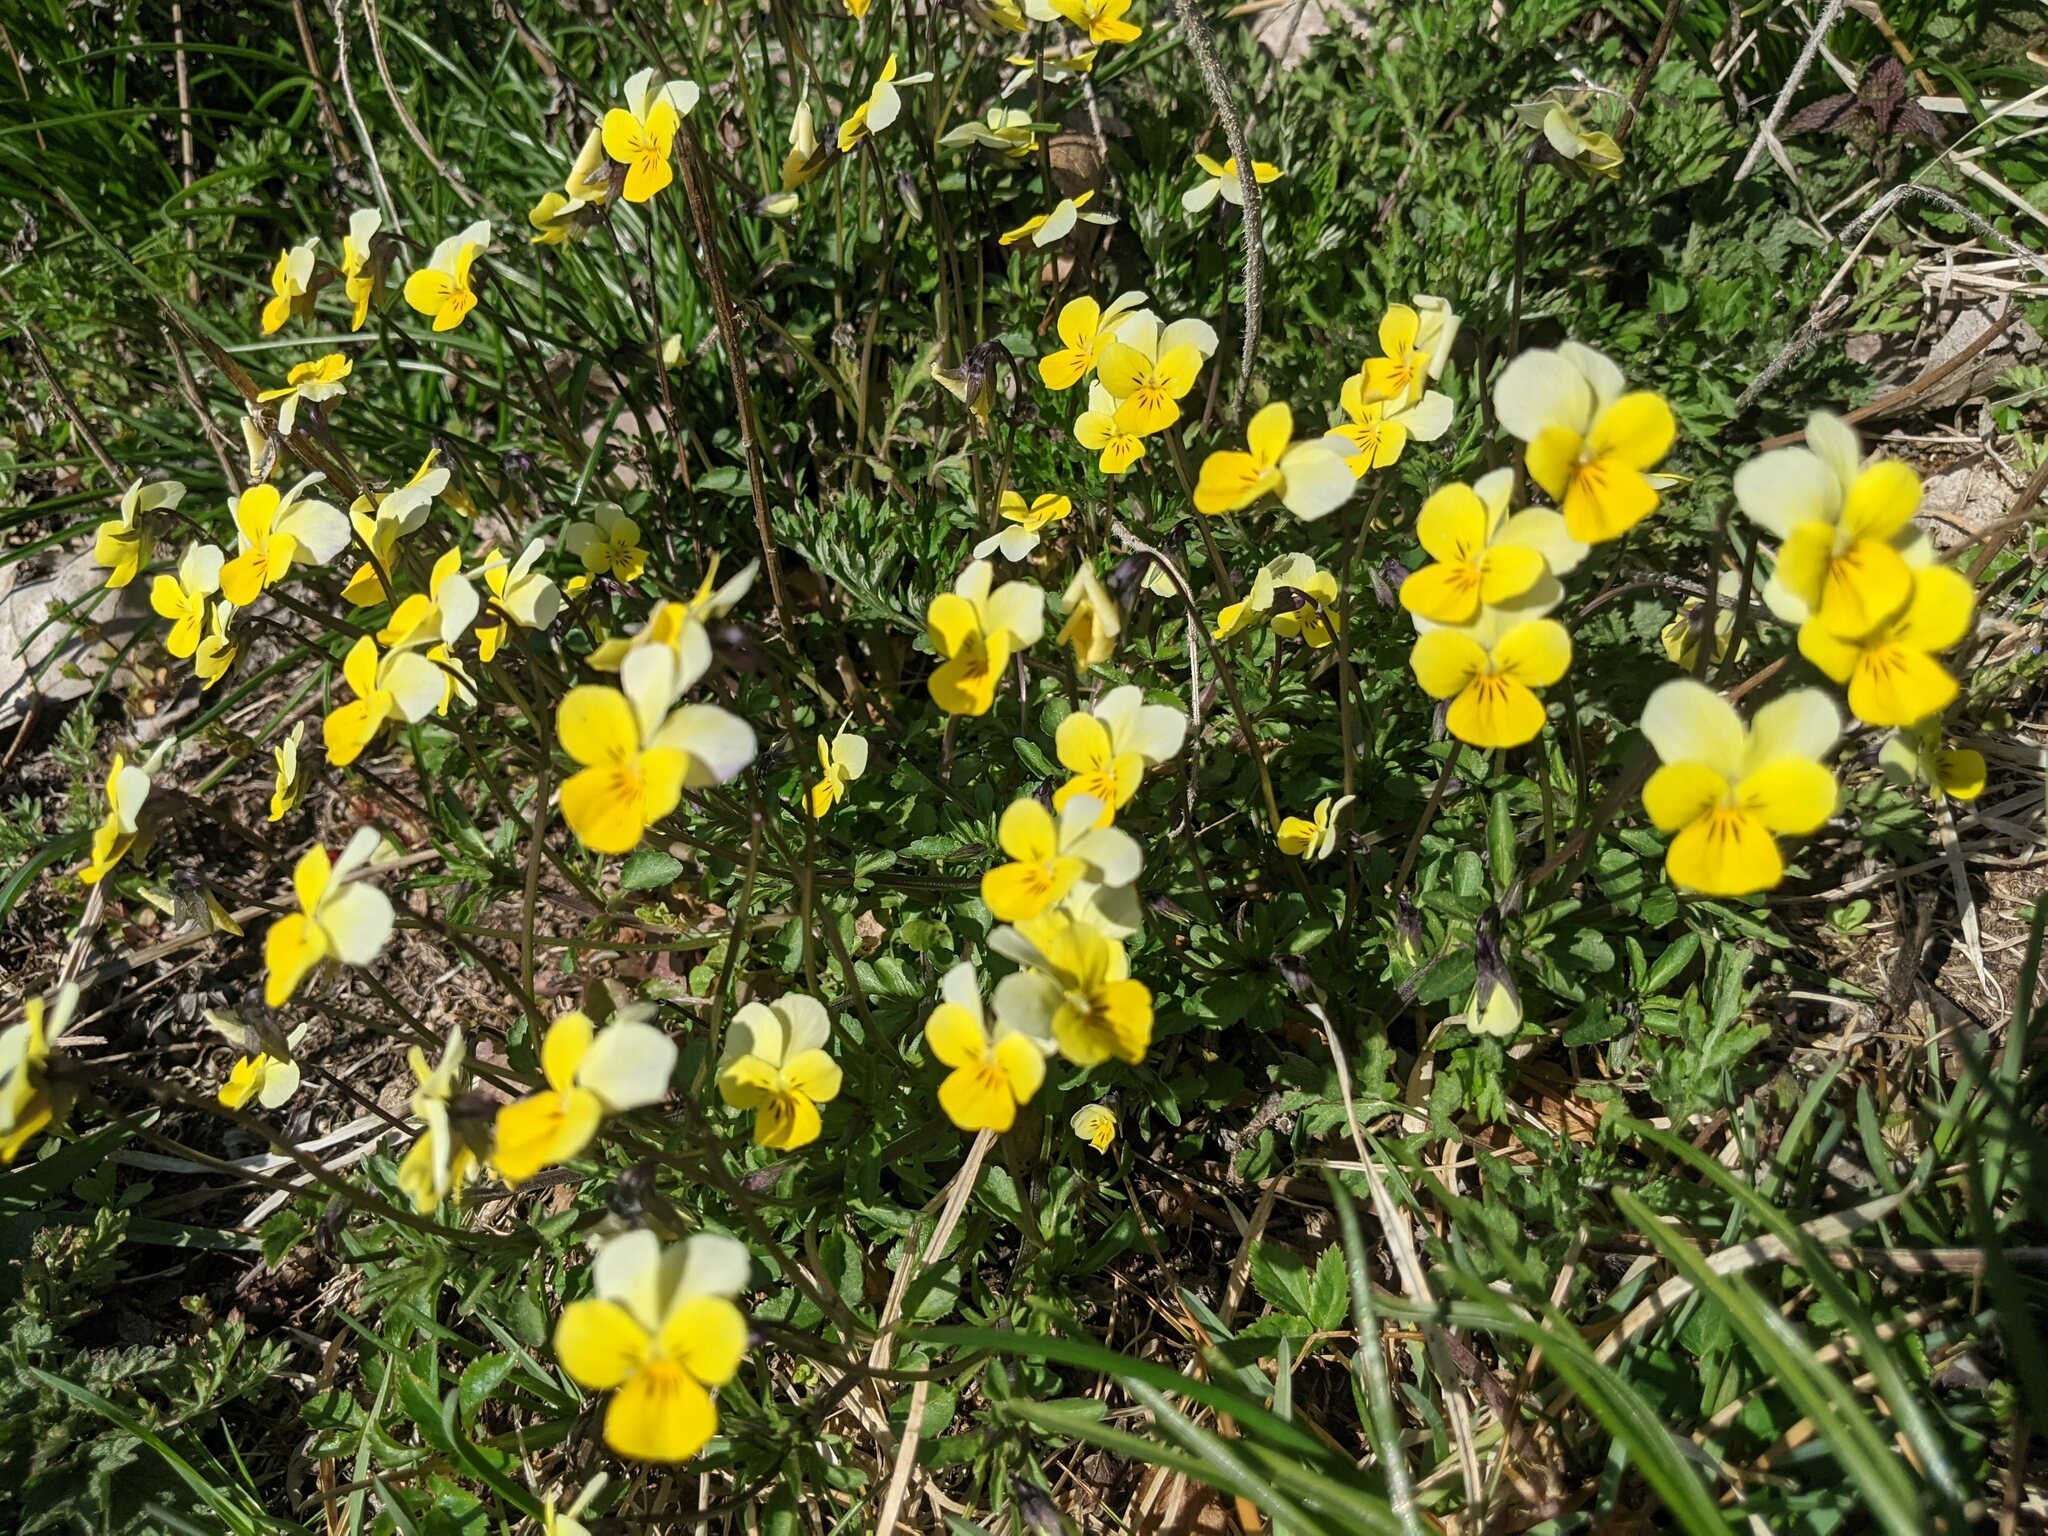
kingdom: Plantae
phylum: Tracheophyta
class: Magnoliopsida
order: Malpighiales
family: Violaceae
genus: Viola
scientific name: Viola tricolor
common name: Pansy
